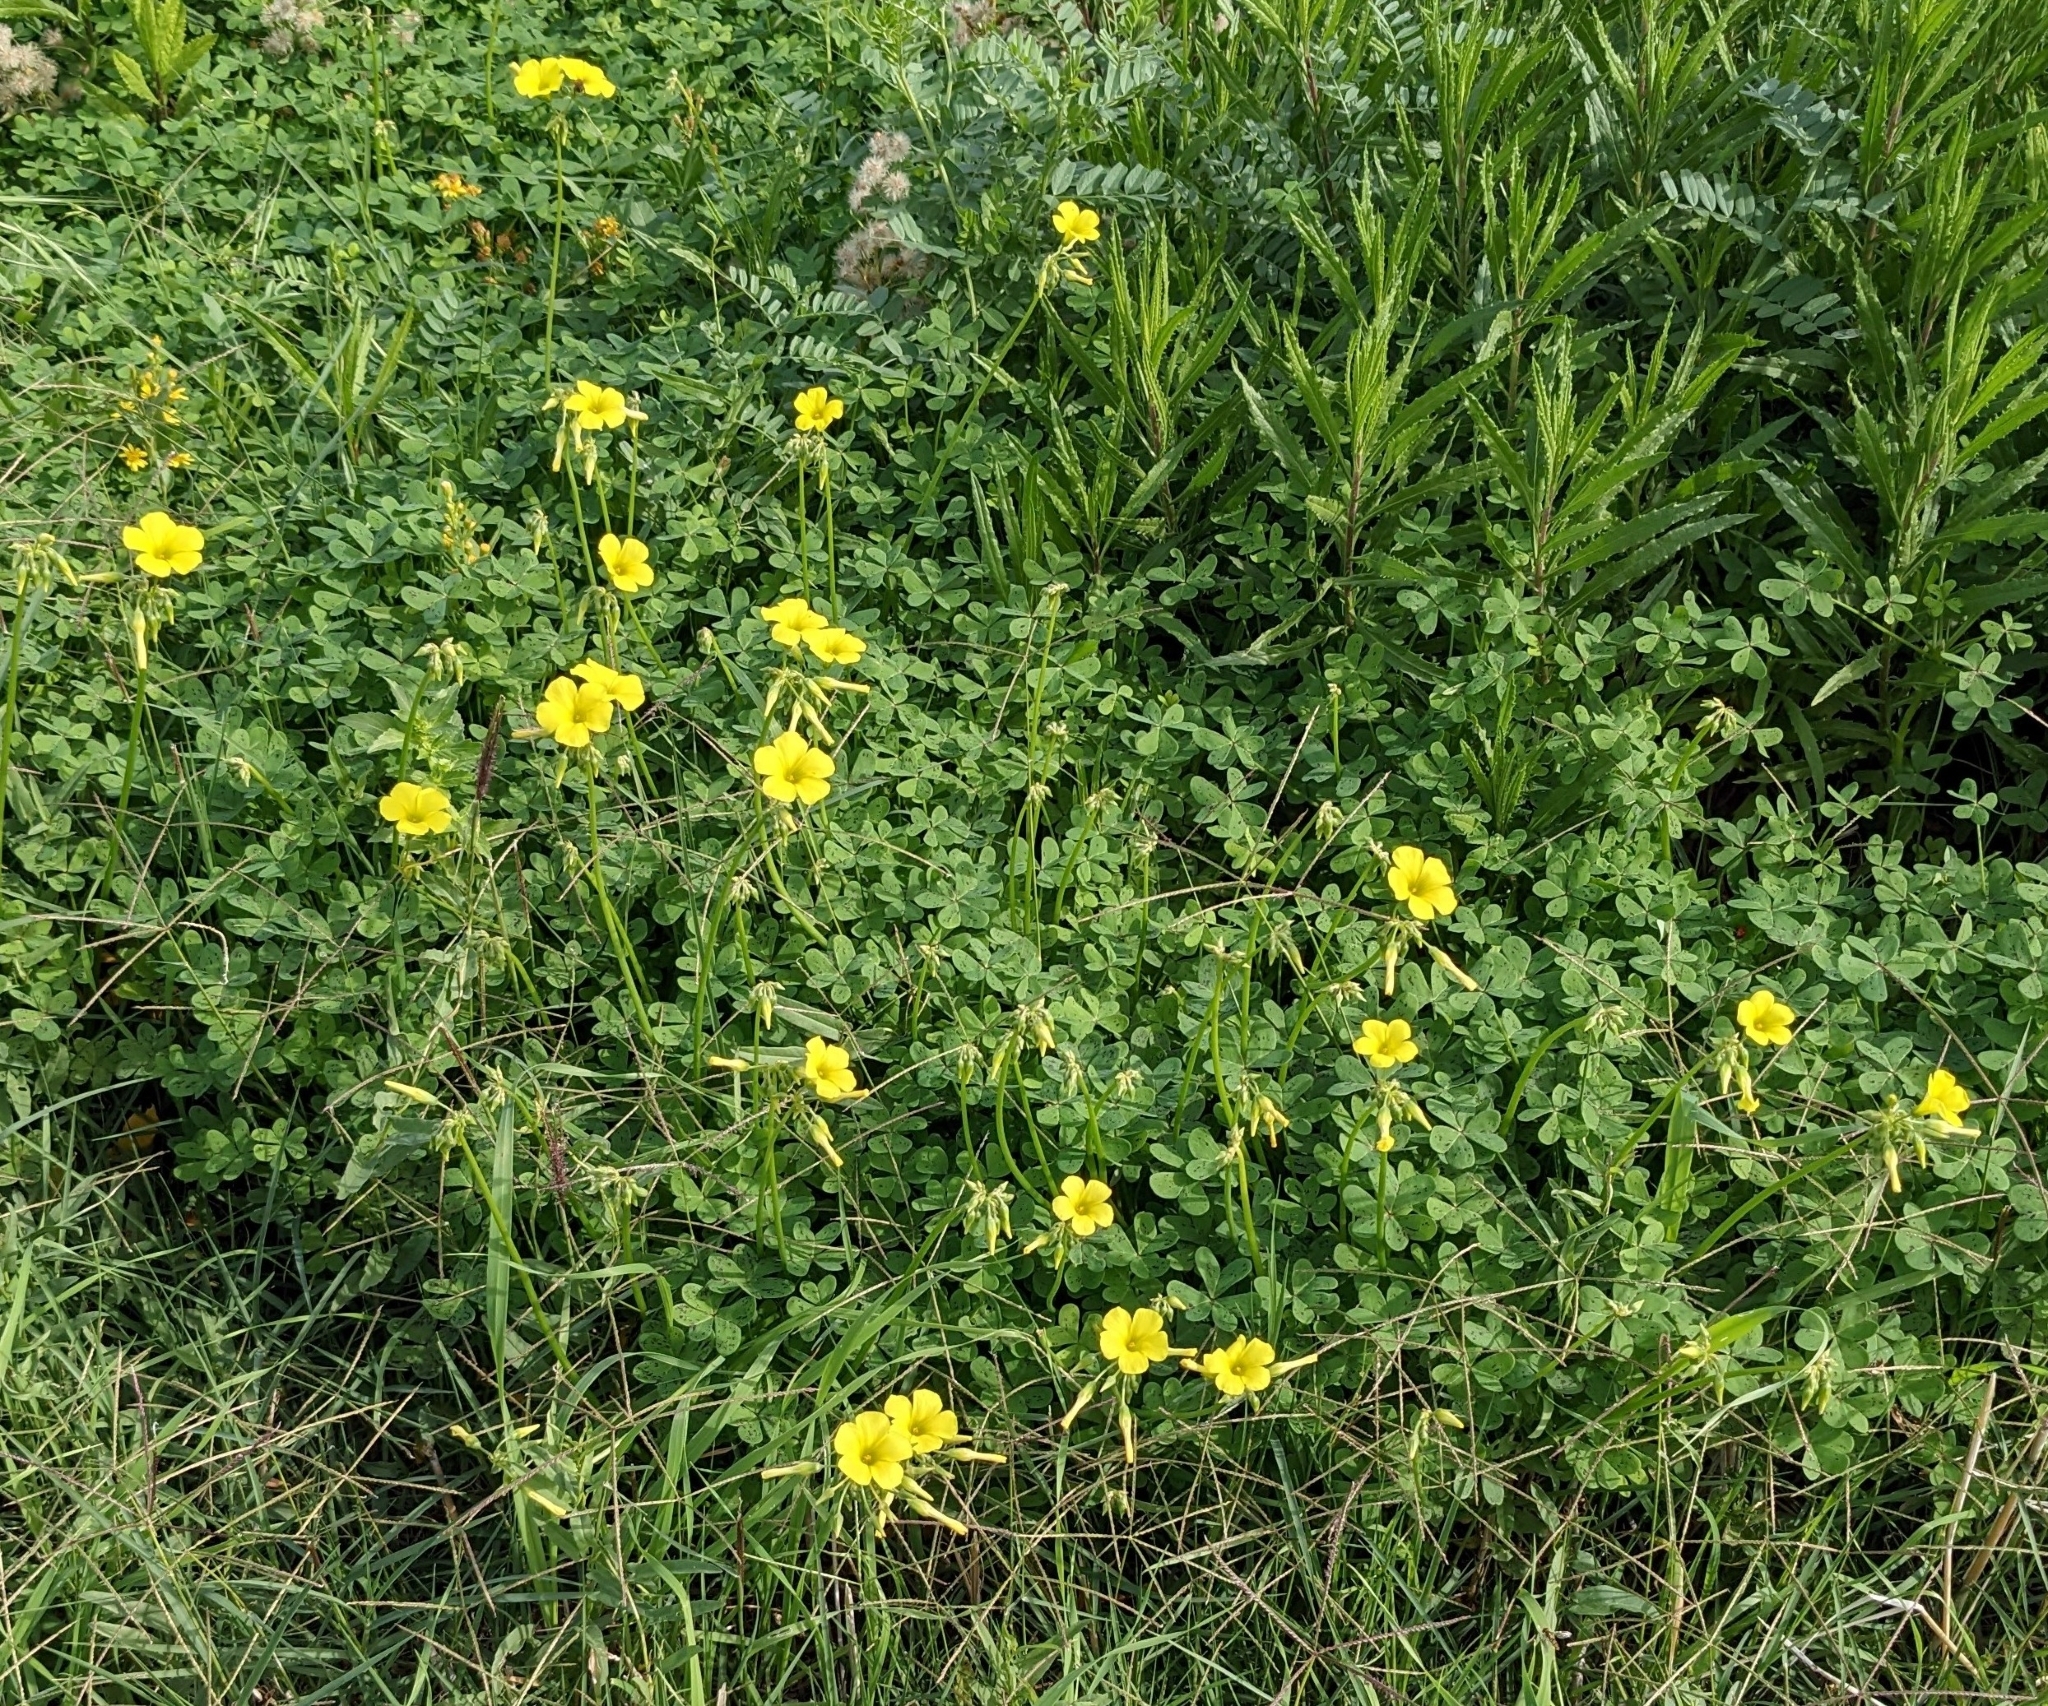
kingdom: Plantae
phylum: Tracheophyta
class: Magnoliopsida
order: Oxalidales
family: Oxalidaceae
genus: Oxalis
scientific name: Oxalis pes-caprae
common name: Bermuda-buttercup
